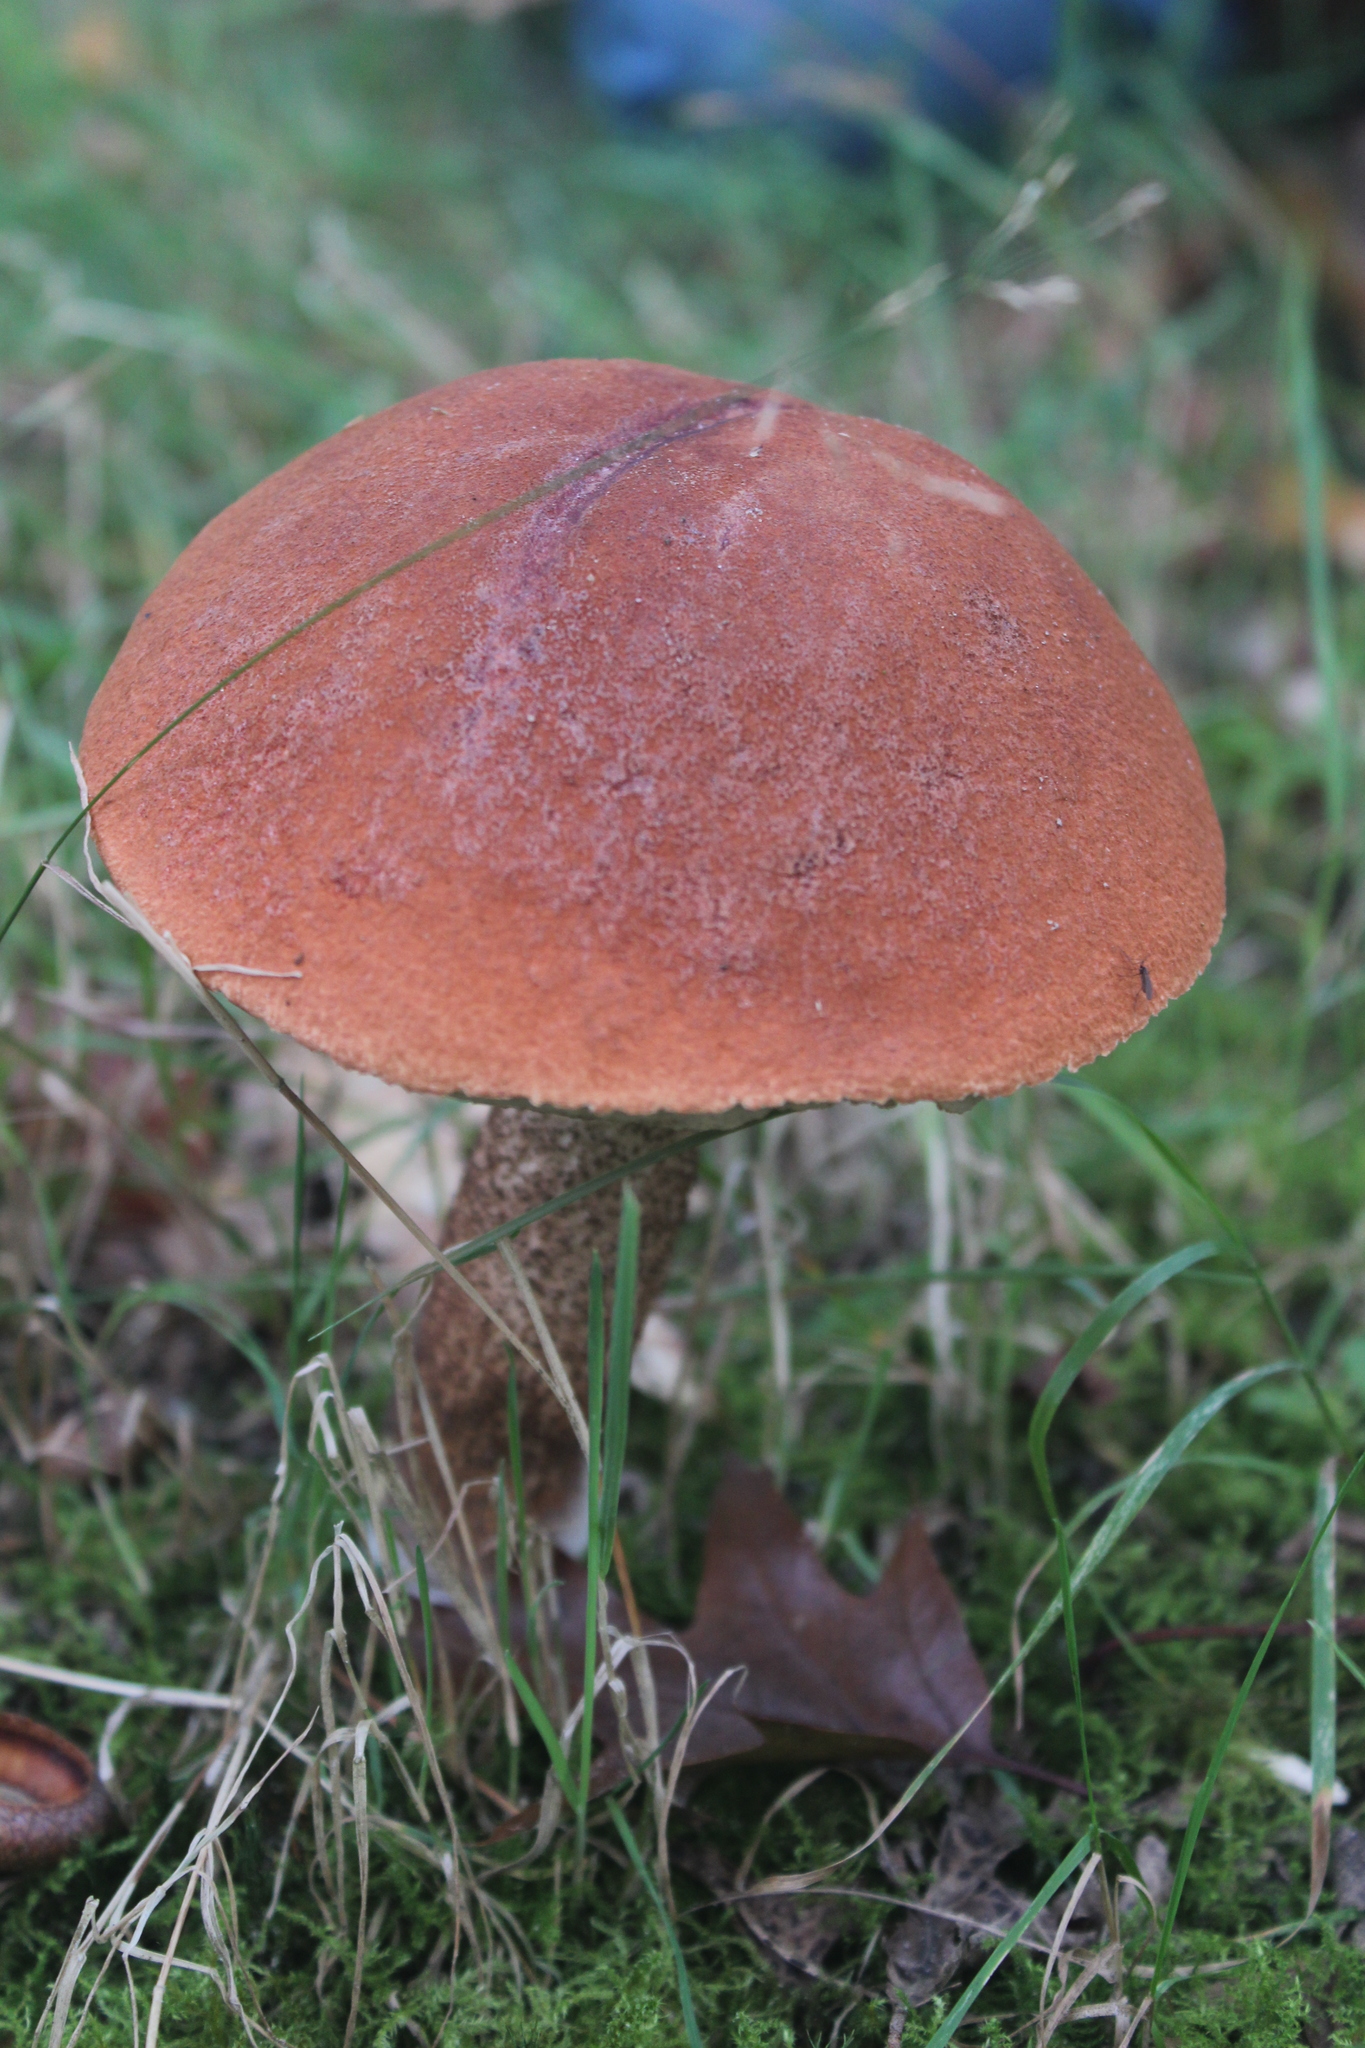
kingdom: Fungi
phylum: Basidiomycota
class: Agaricomycetes
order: Boletales
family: Boletaceae
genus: Leccinum
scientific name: Leccinum aurantiacum
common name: Orange bolete
